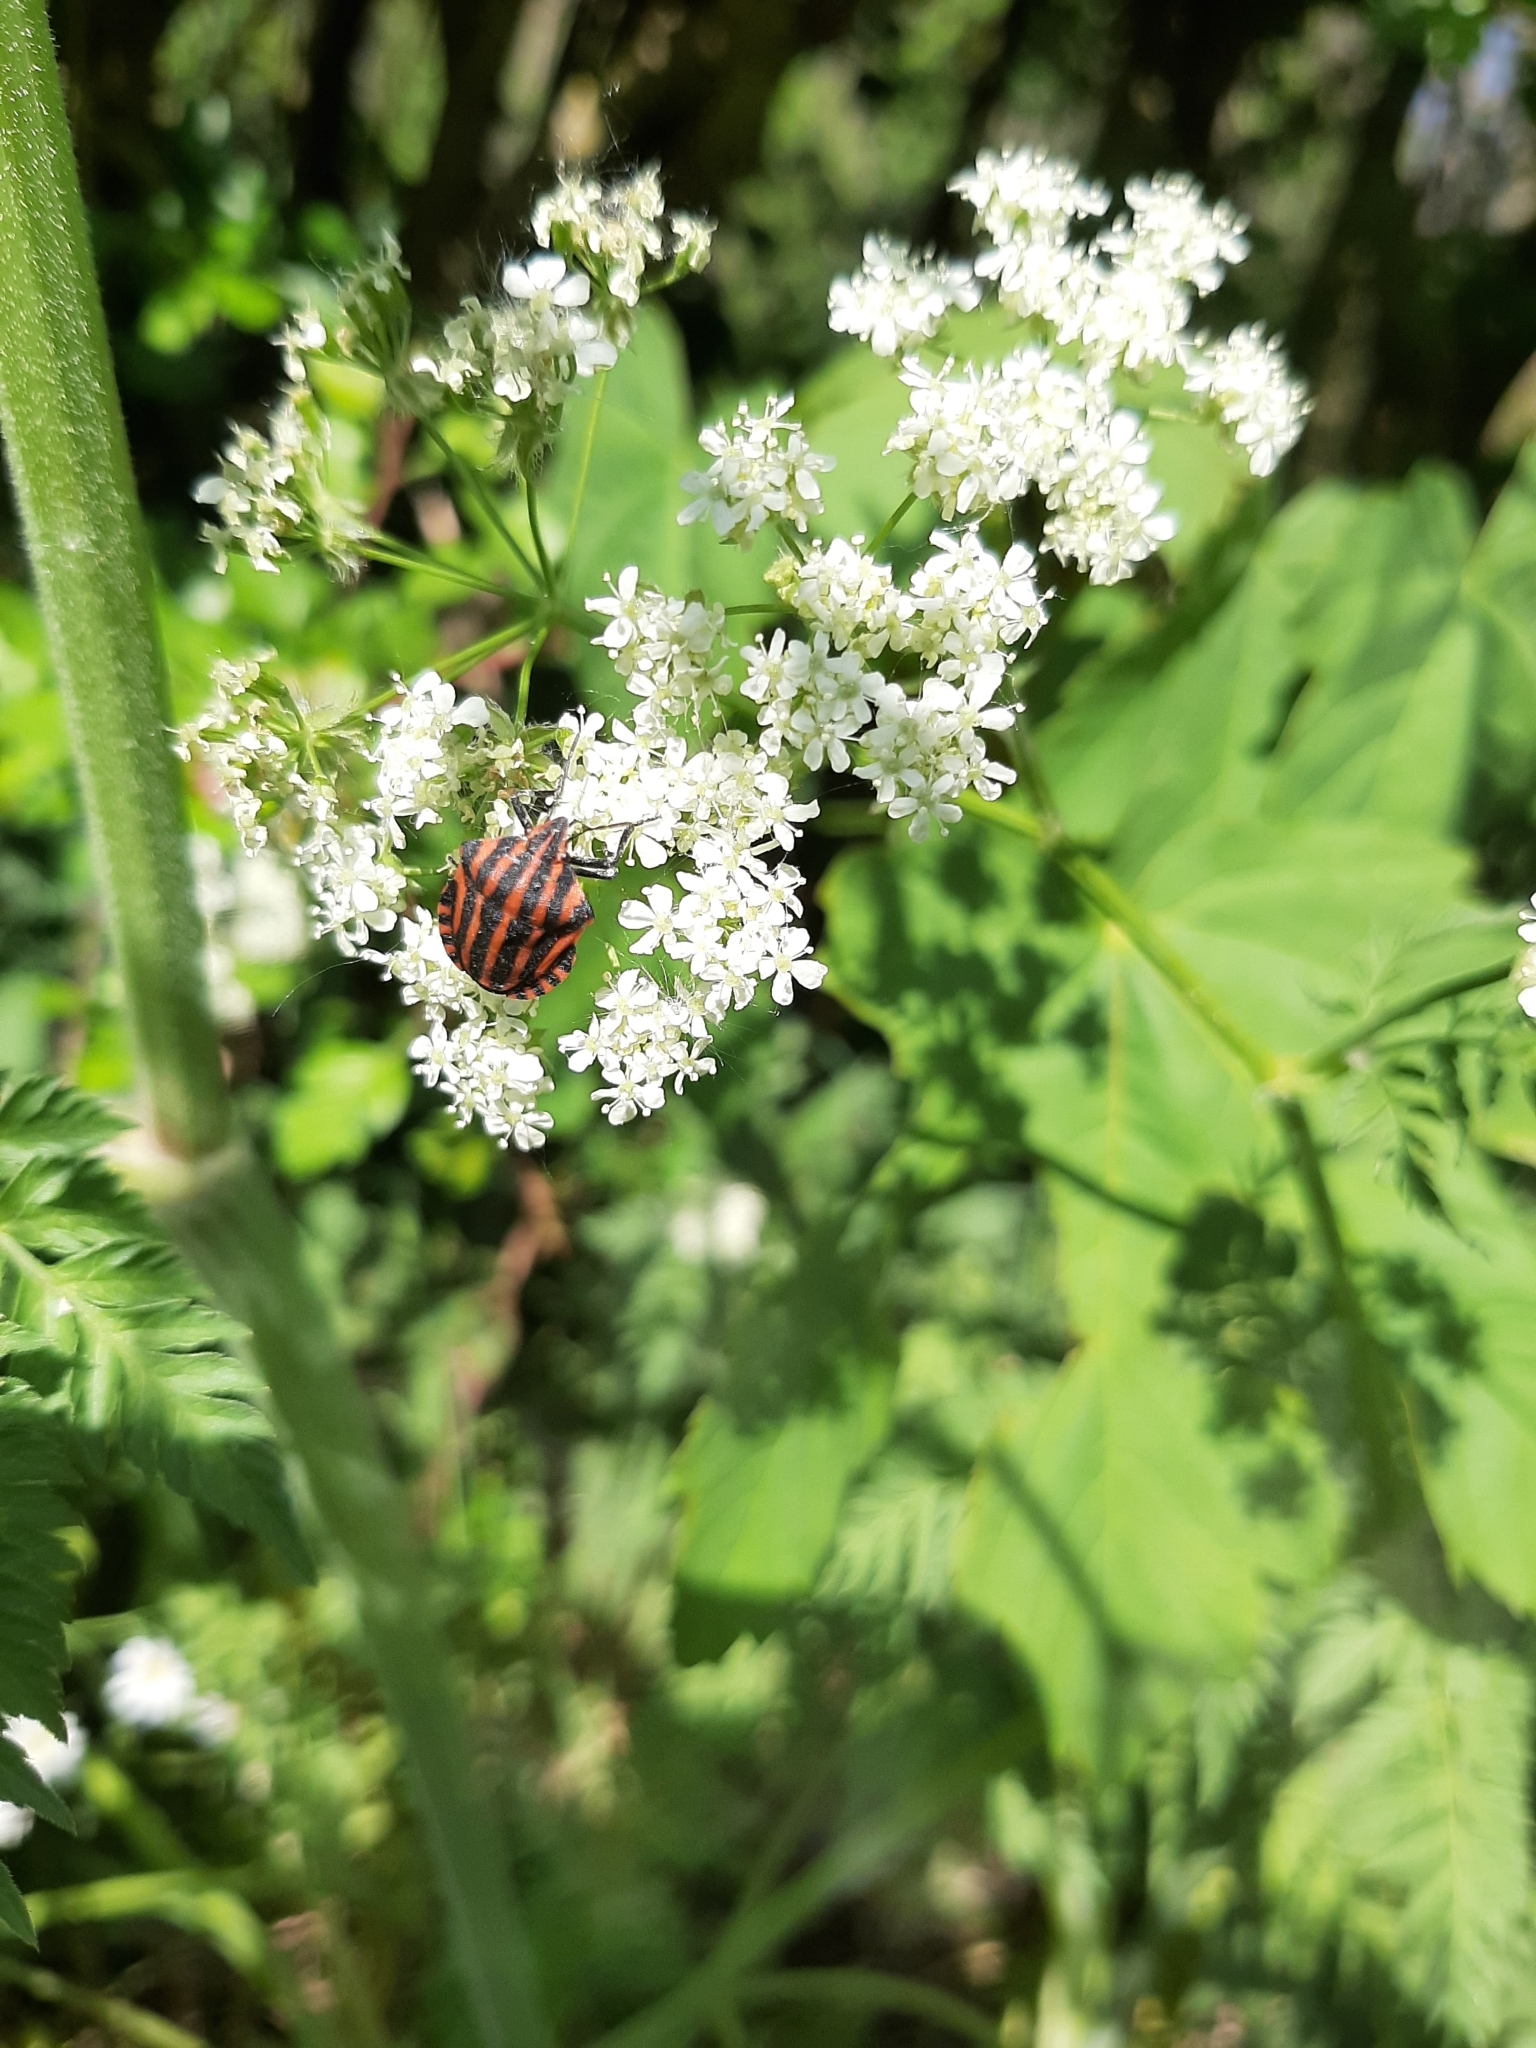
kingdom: Animalia
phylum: Arthropoda
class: Insecta
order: Hemiptera
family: Pentatomidae
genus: Graphosoma
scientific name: Graphosoma italicum
